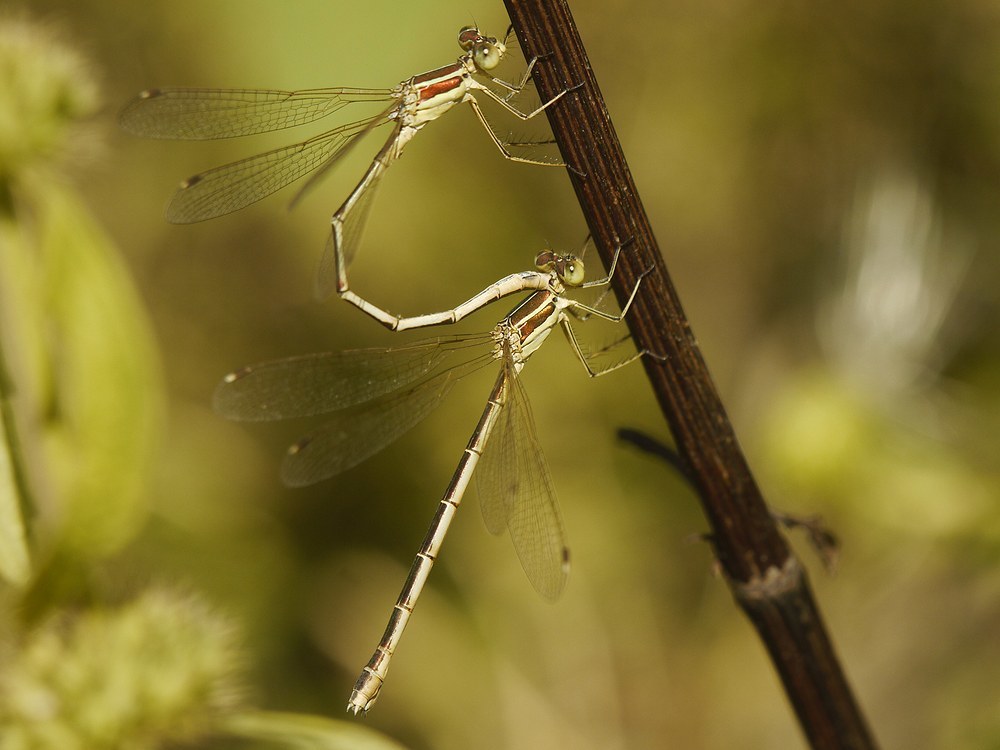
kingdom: Animalia
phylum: Arthropoda
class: Insecta
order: Odonata
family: Lestidae
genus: Lestes
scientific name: Lestes barbarus
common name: Migrant spreadwing
